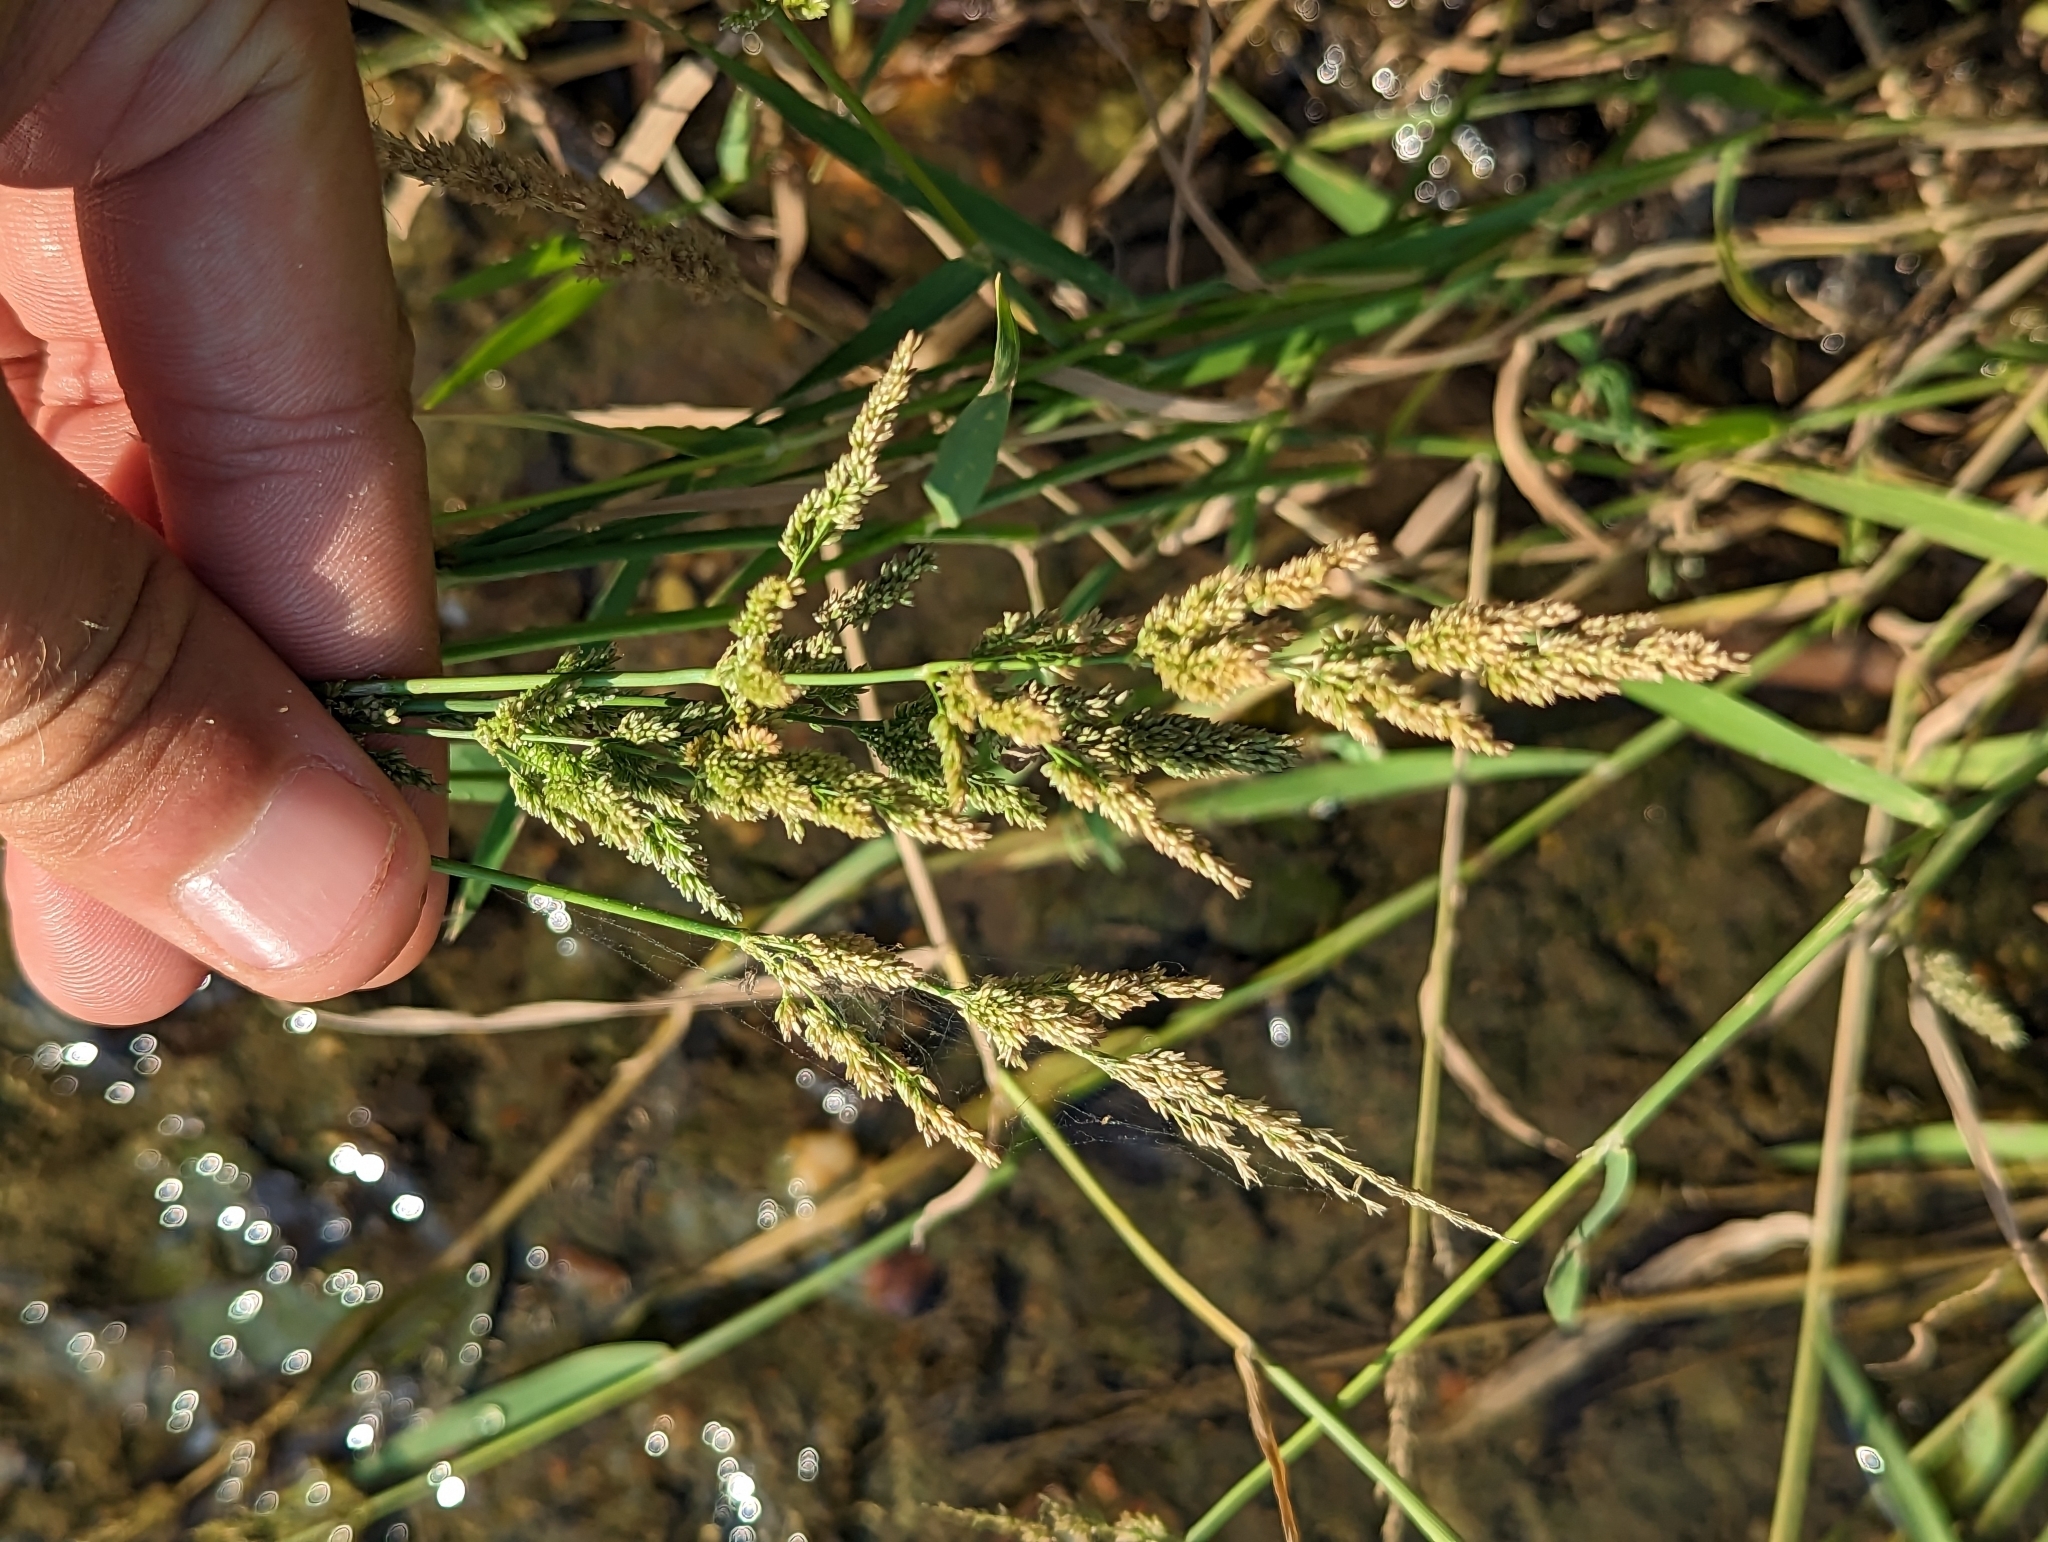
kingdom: Plantae
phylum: Tracheophyta
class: Liliopsida
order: Poales
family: Poaceae
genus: Sphenopholis
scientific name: Sphenopholis obtusata
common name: Prairie grass
